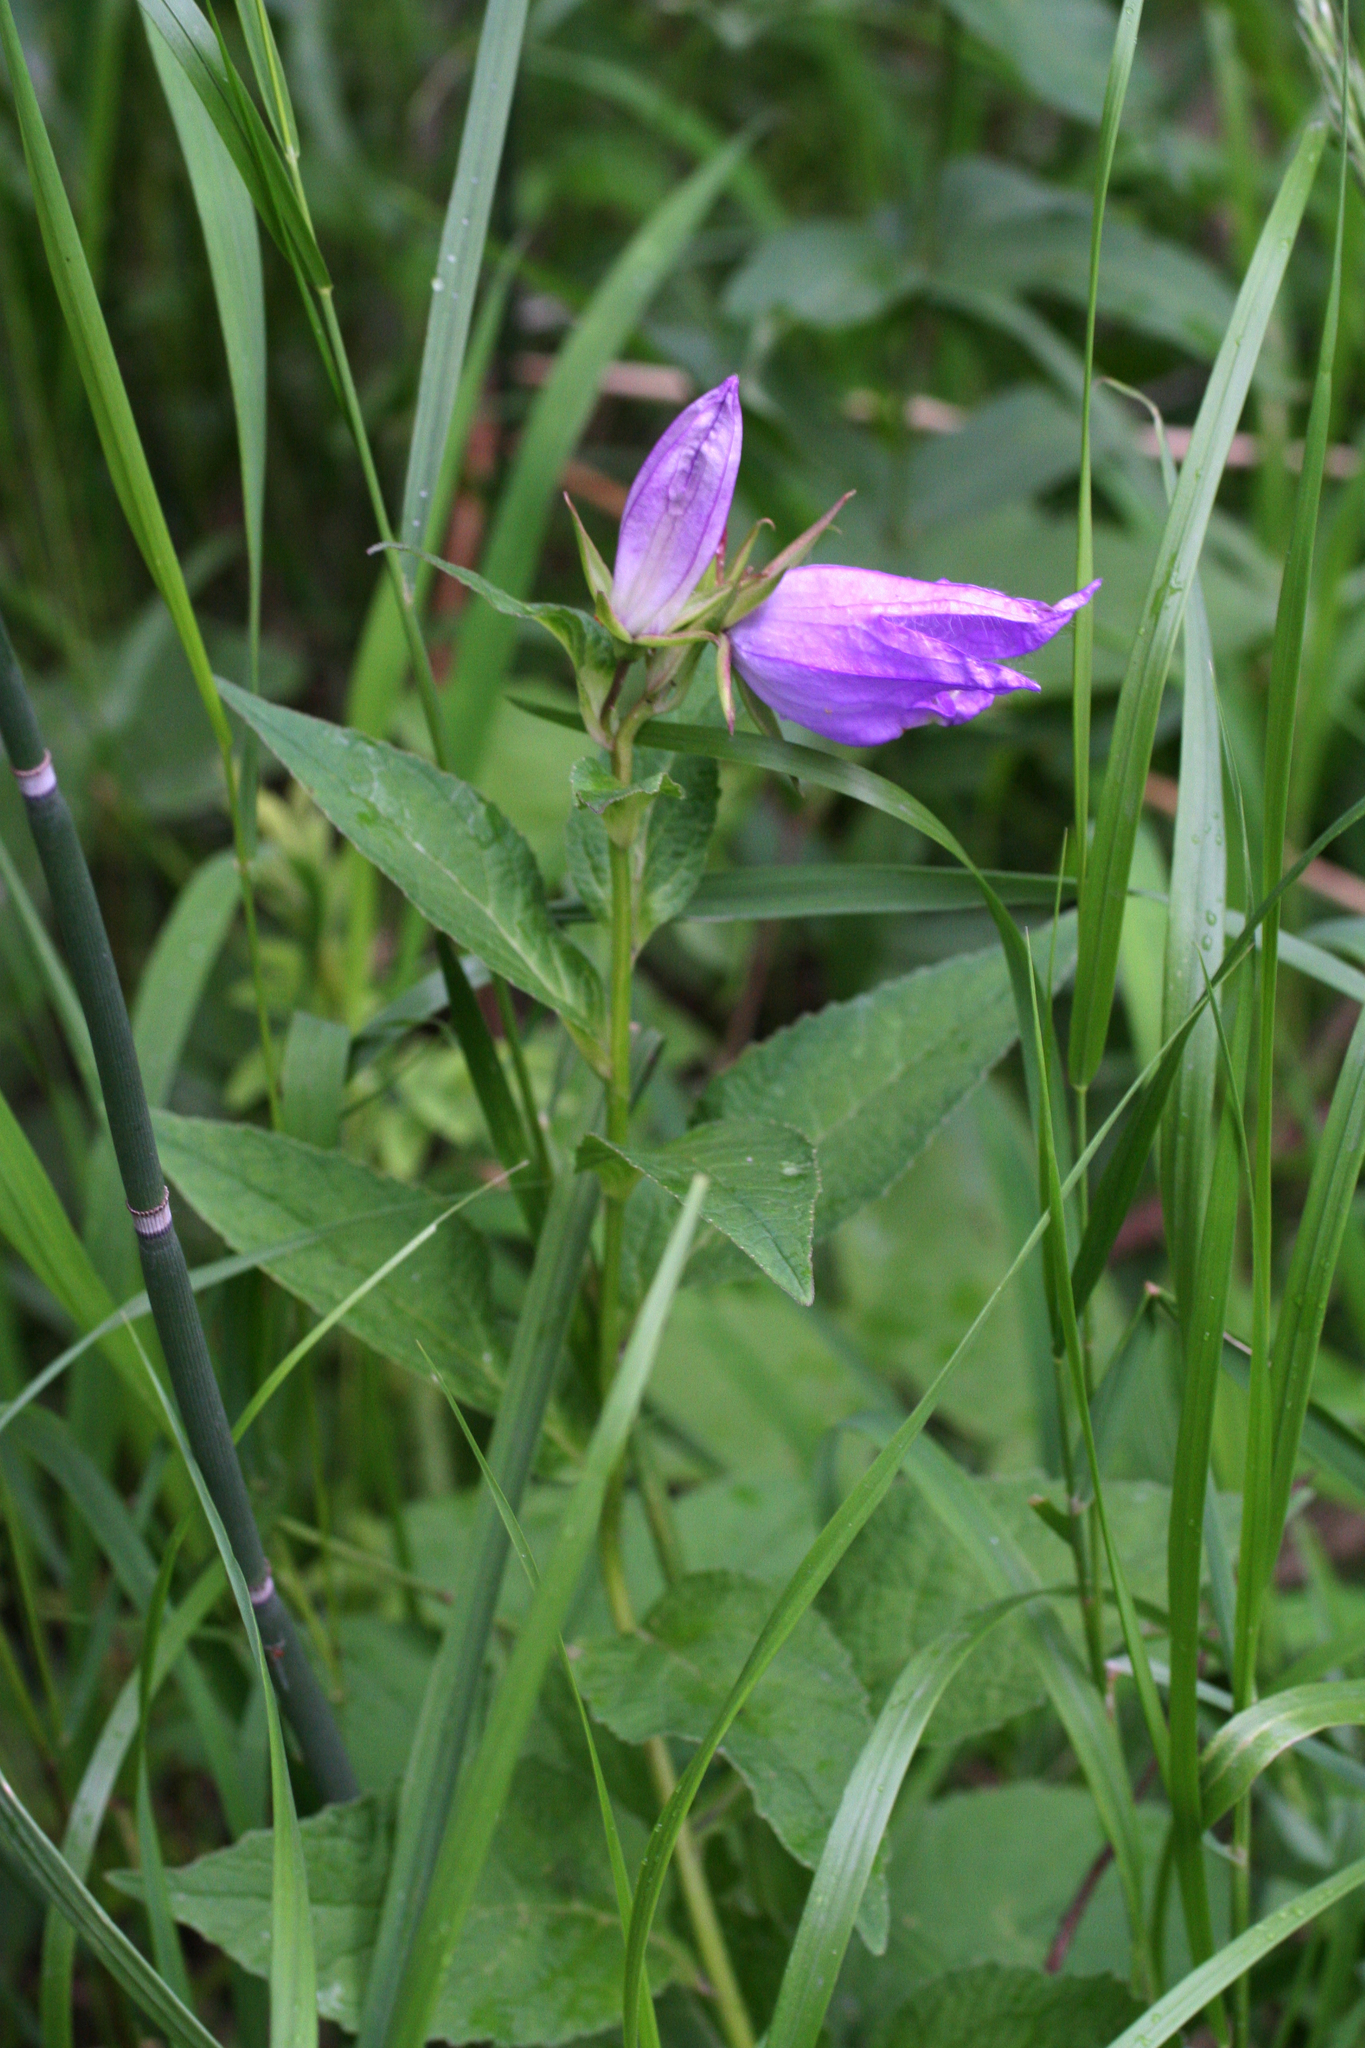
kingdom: Plantae
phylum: Tracheophyta
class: Magnoliopsida
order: Asterales
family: Campanulaceae
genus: Campanula
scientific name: Campanula latifolia
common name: Giant bellflower
